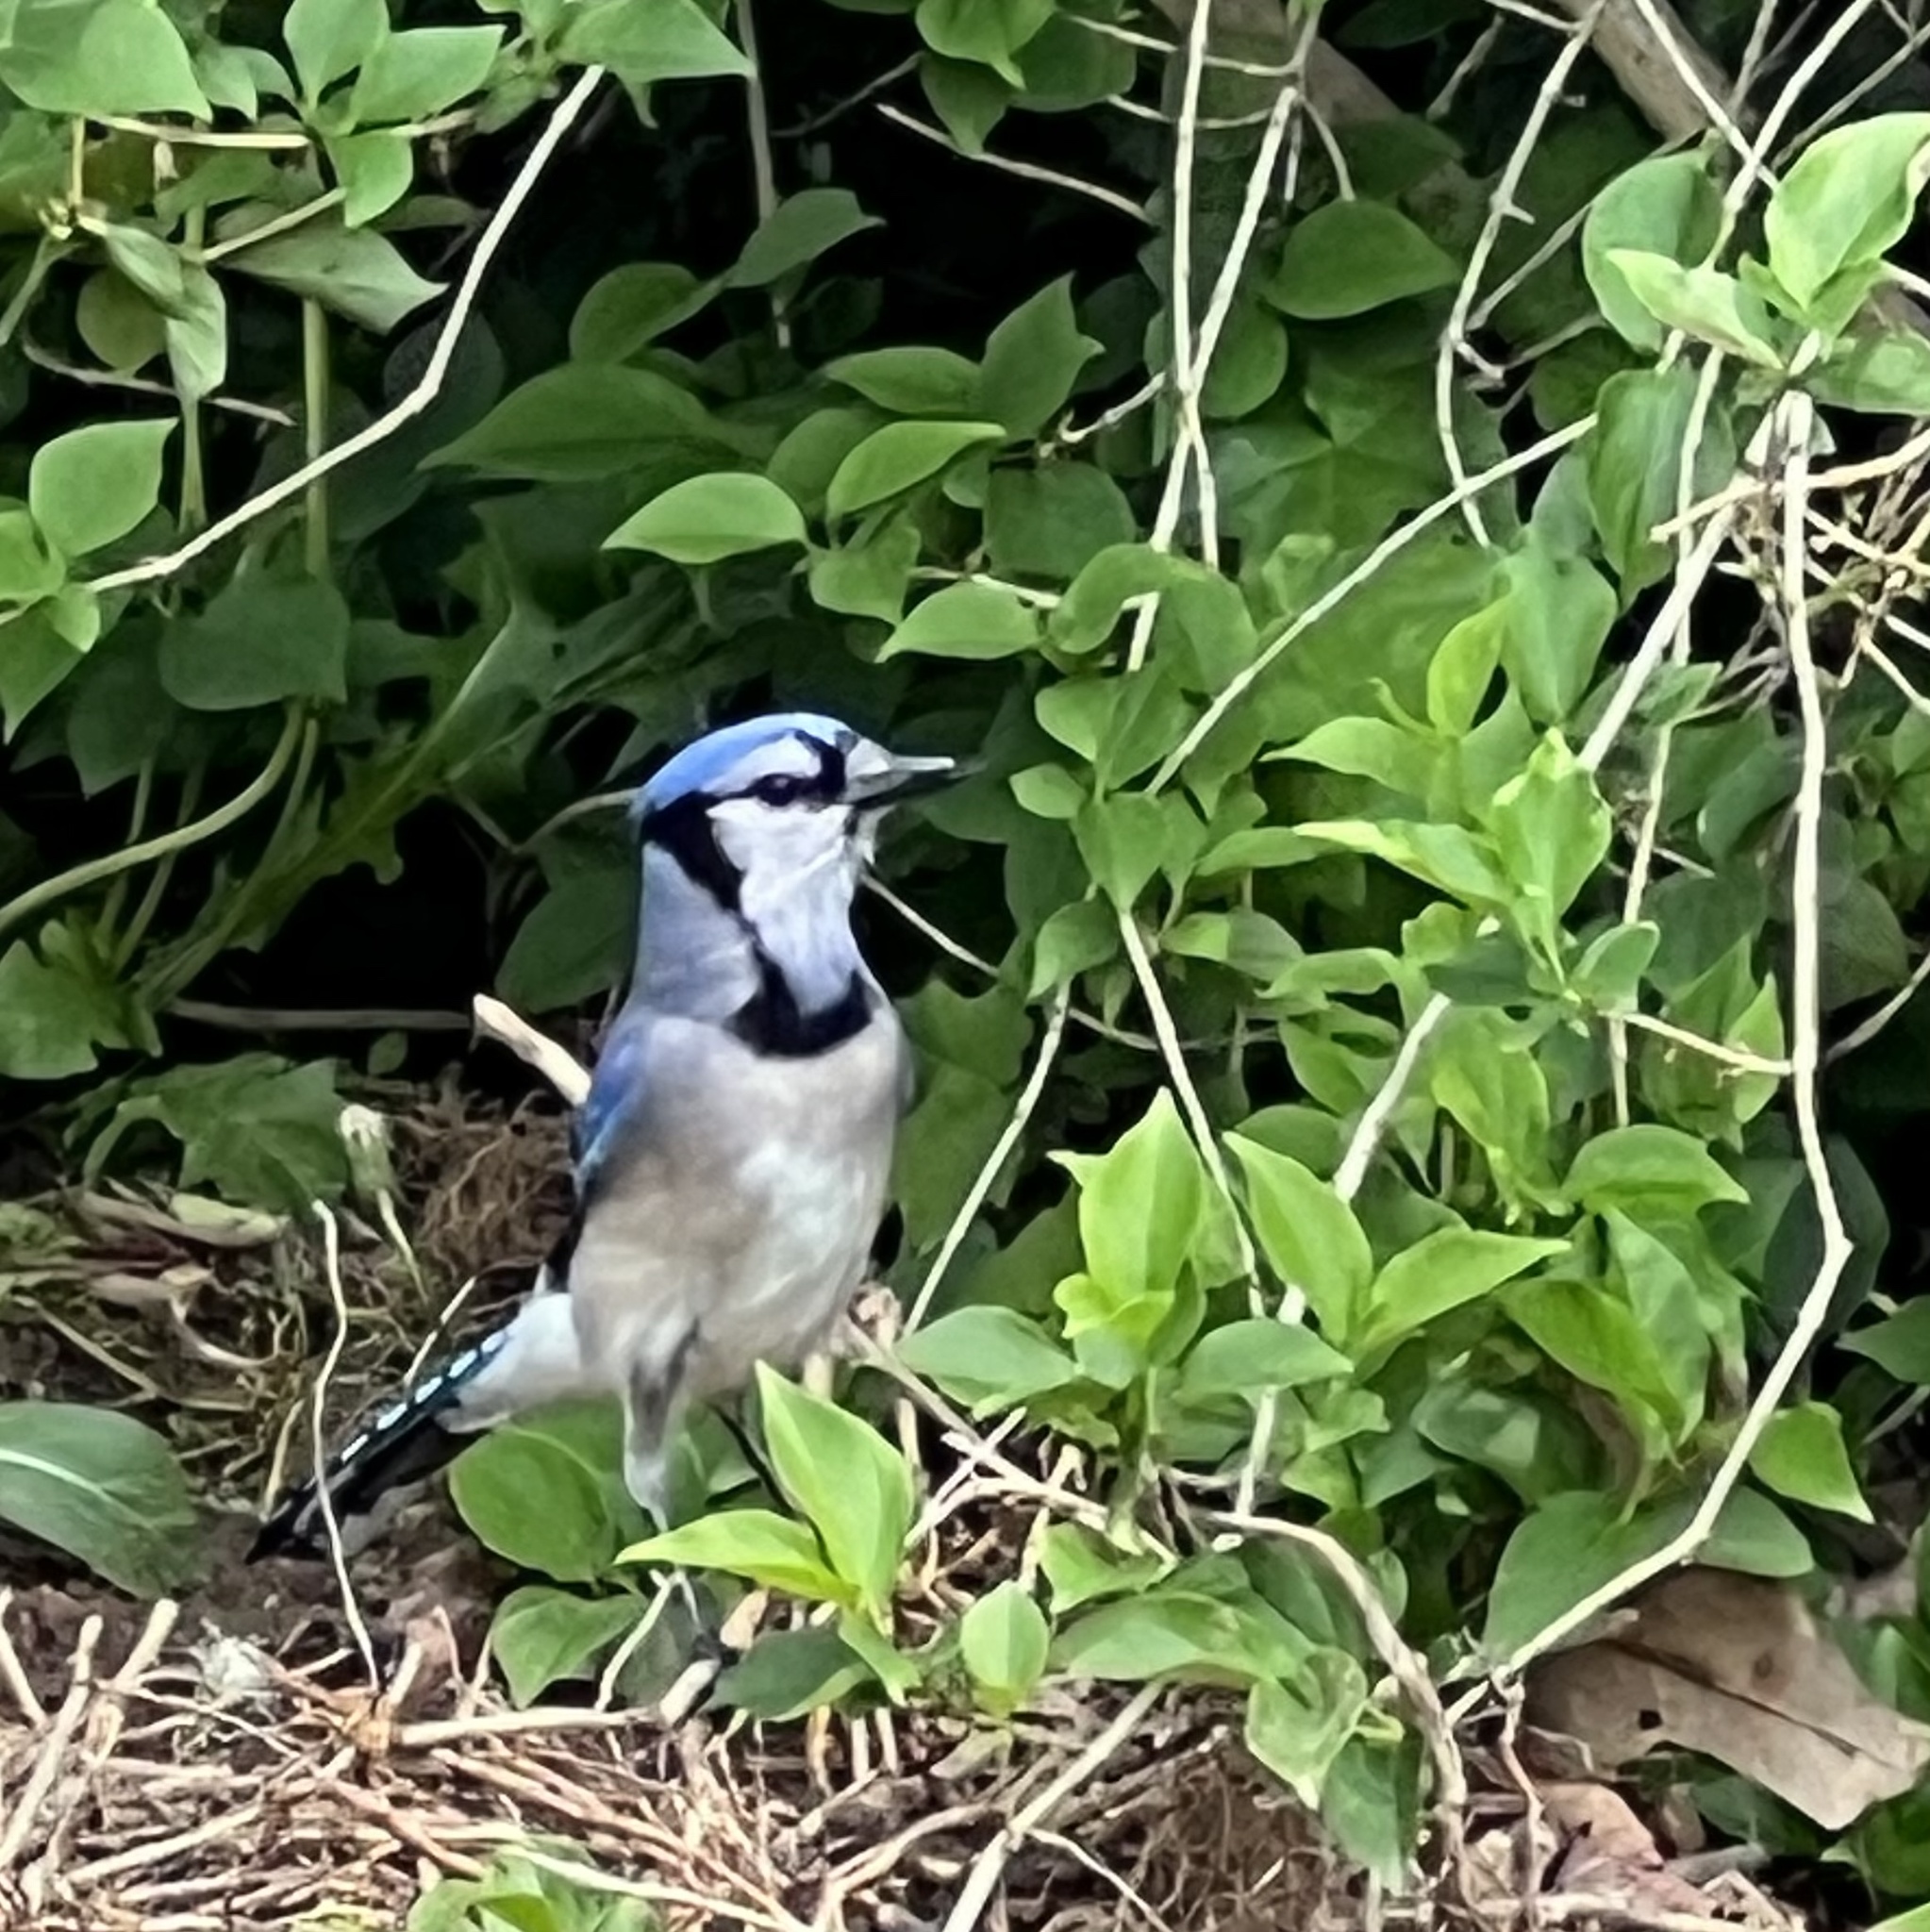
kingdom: Animalia
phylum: Chordata
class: Aves
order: Passeriformes
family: Corvidae
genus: Cyanocitta
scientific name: Cyanocitta cristata
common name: Blue jay
